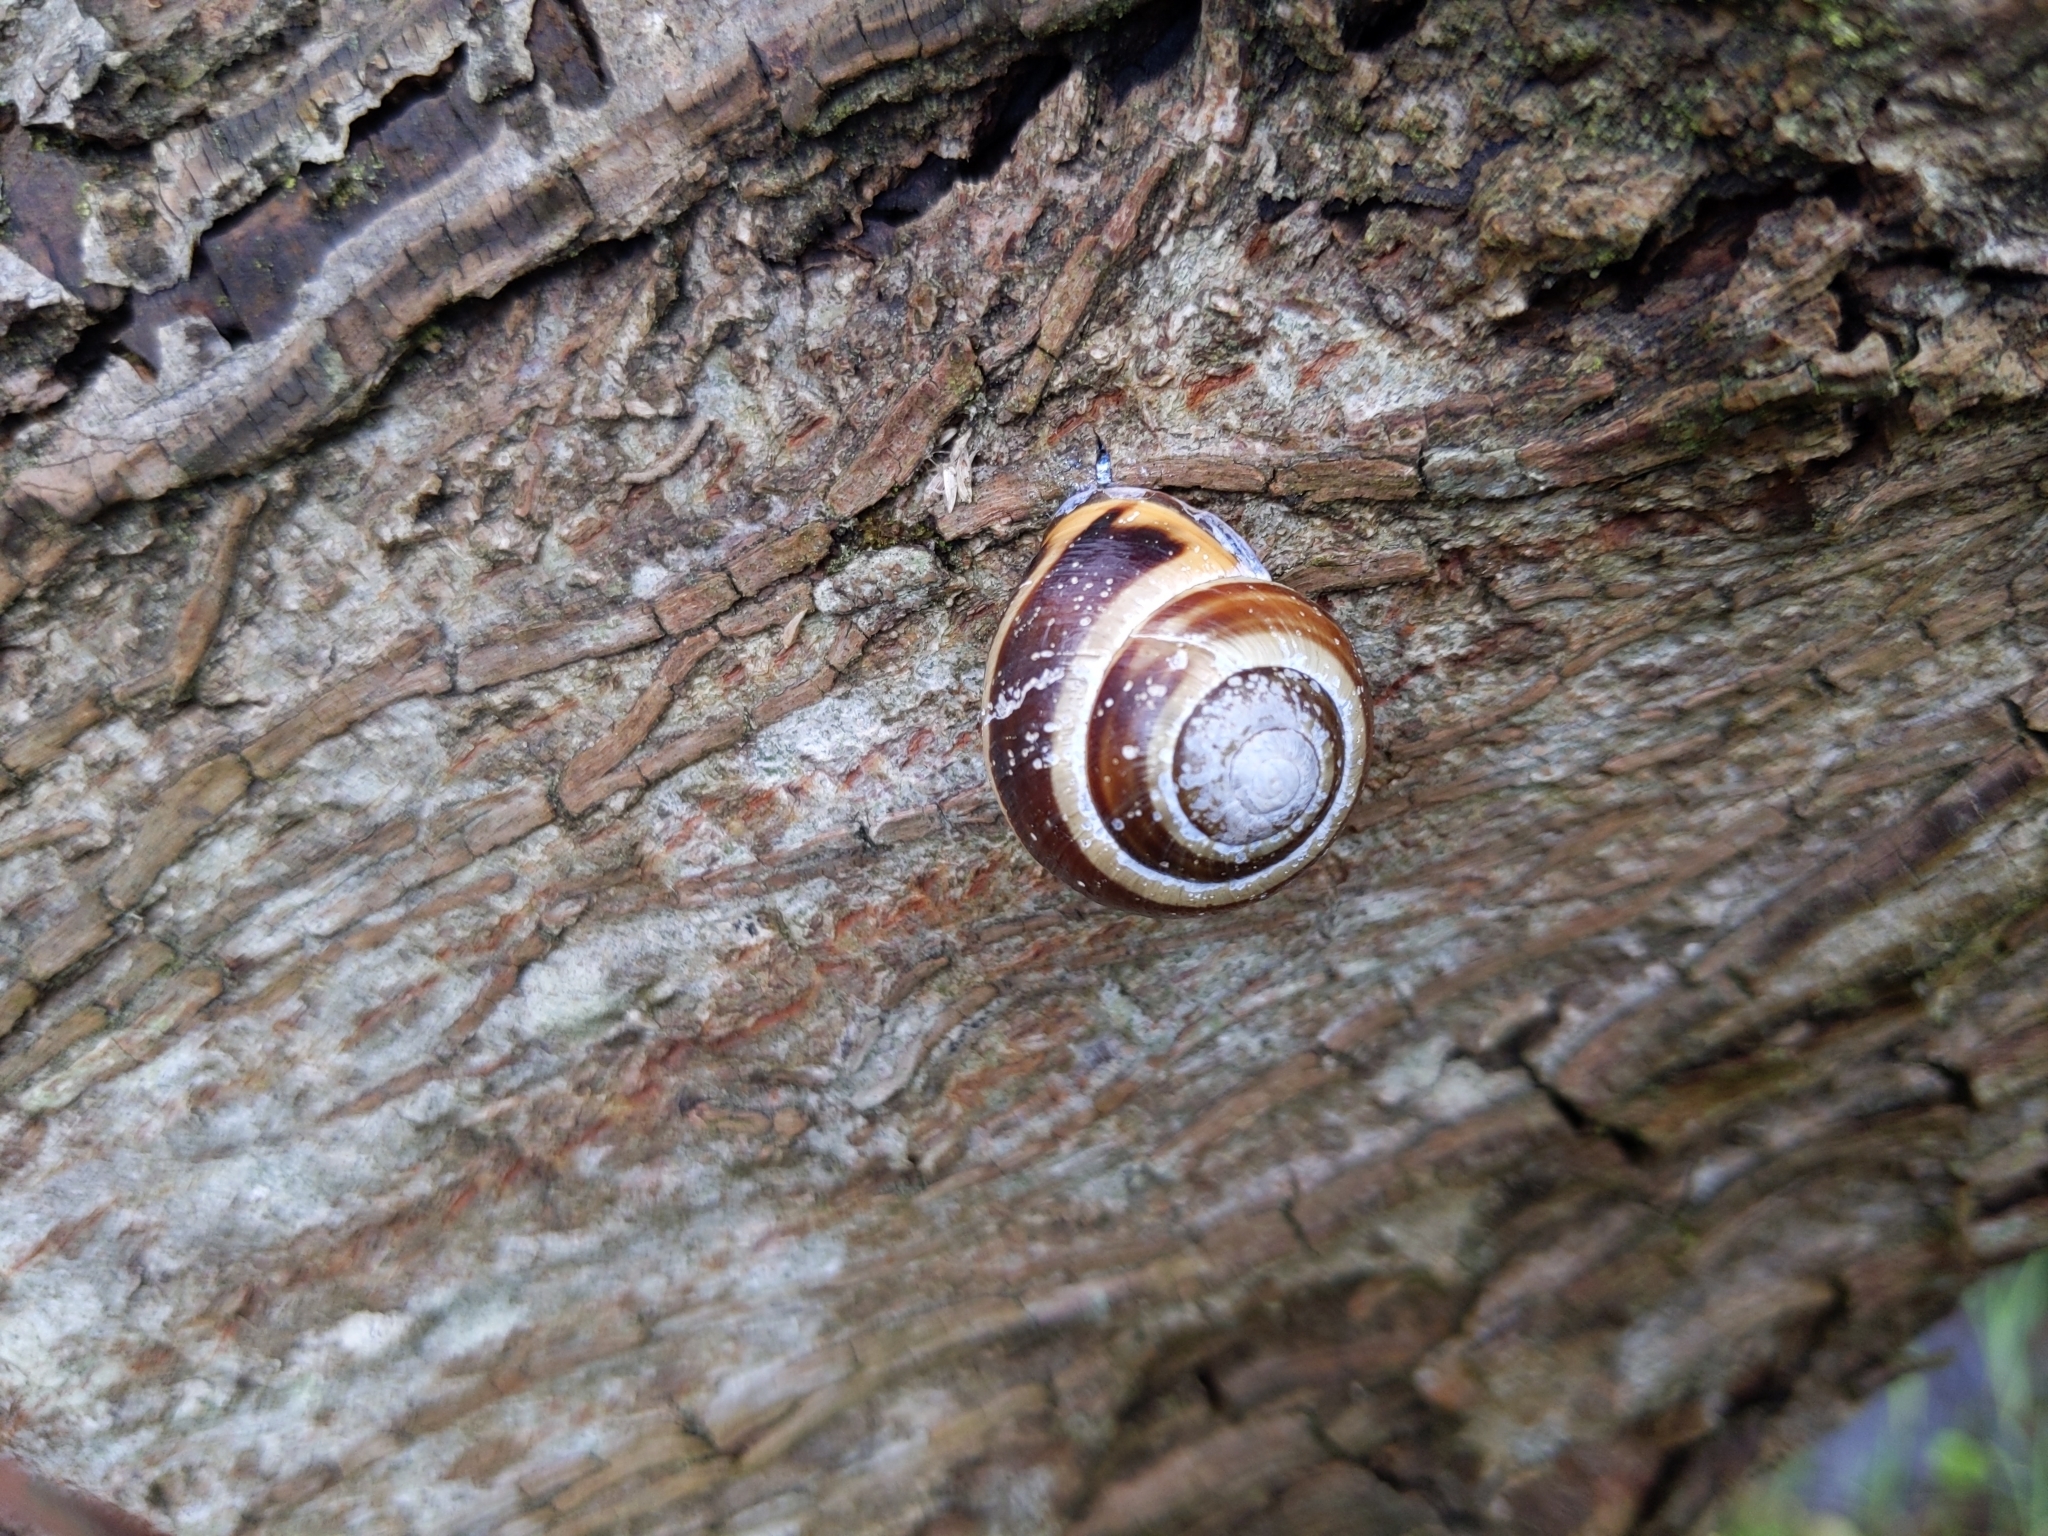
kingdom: Animalia
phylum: Mollusca
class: Gastropoda
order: Stylommatophora
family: Helicidae
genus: Cepaea
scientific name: Cepaea nemoralis
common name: Grovesnail
